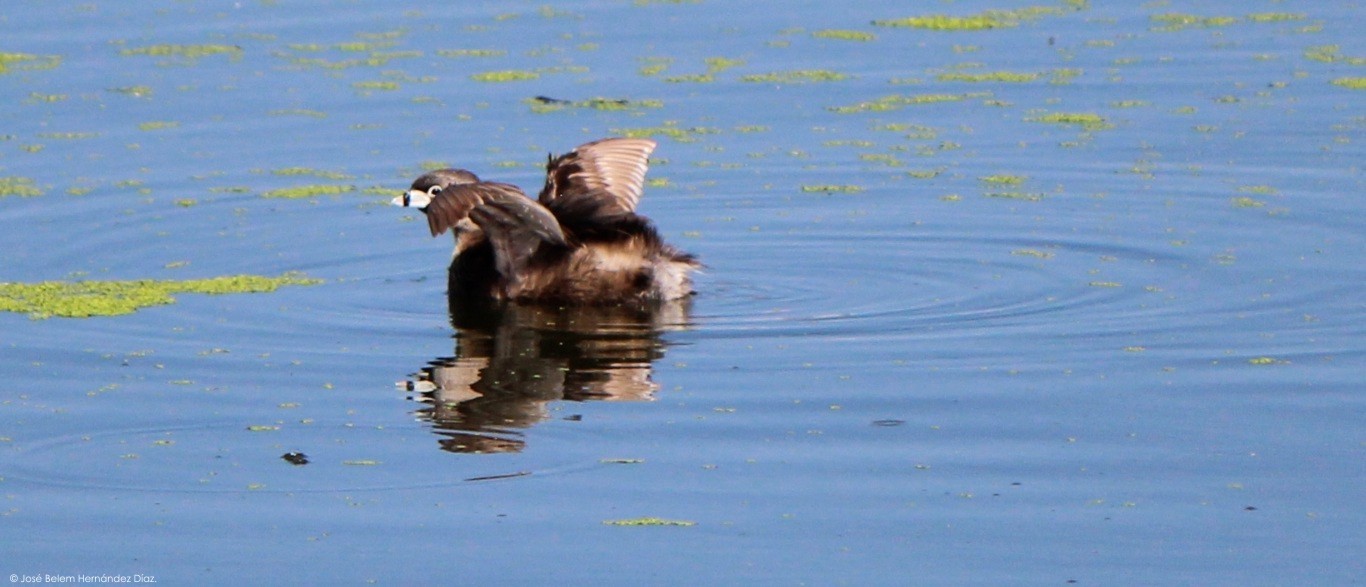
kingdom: Animalia
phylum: Chordata
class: Aves
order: Podicipediformes
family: Podicipedidae
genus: Podilymbus
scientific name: Podilymbus podiceps
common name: Pied-billed grebe
